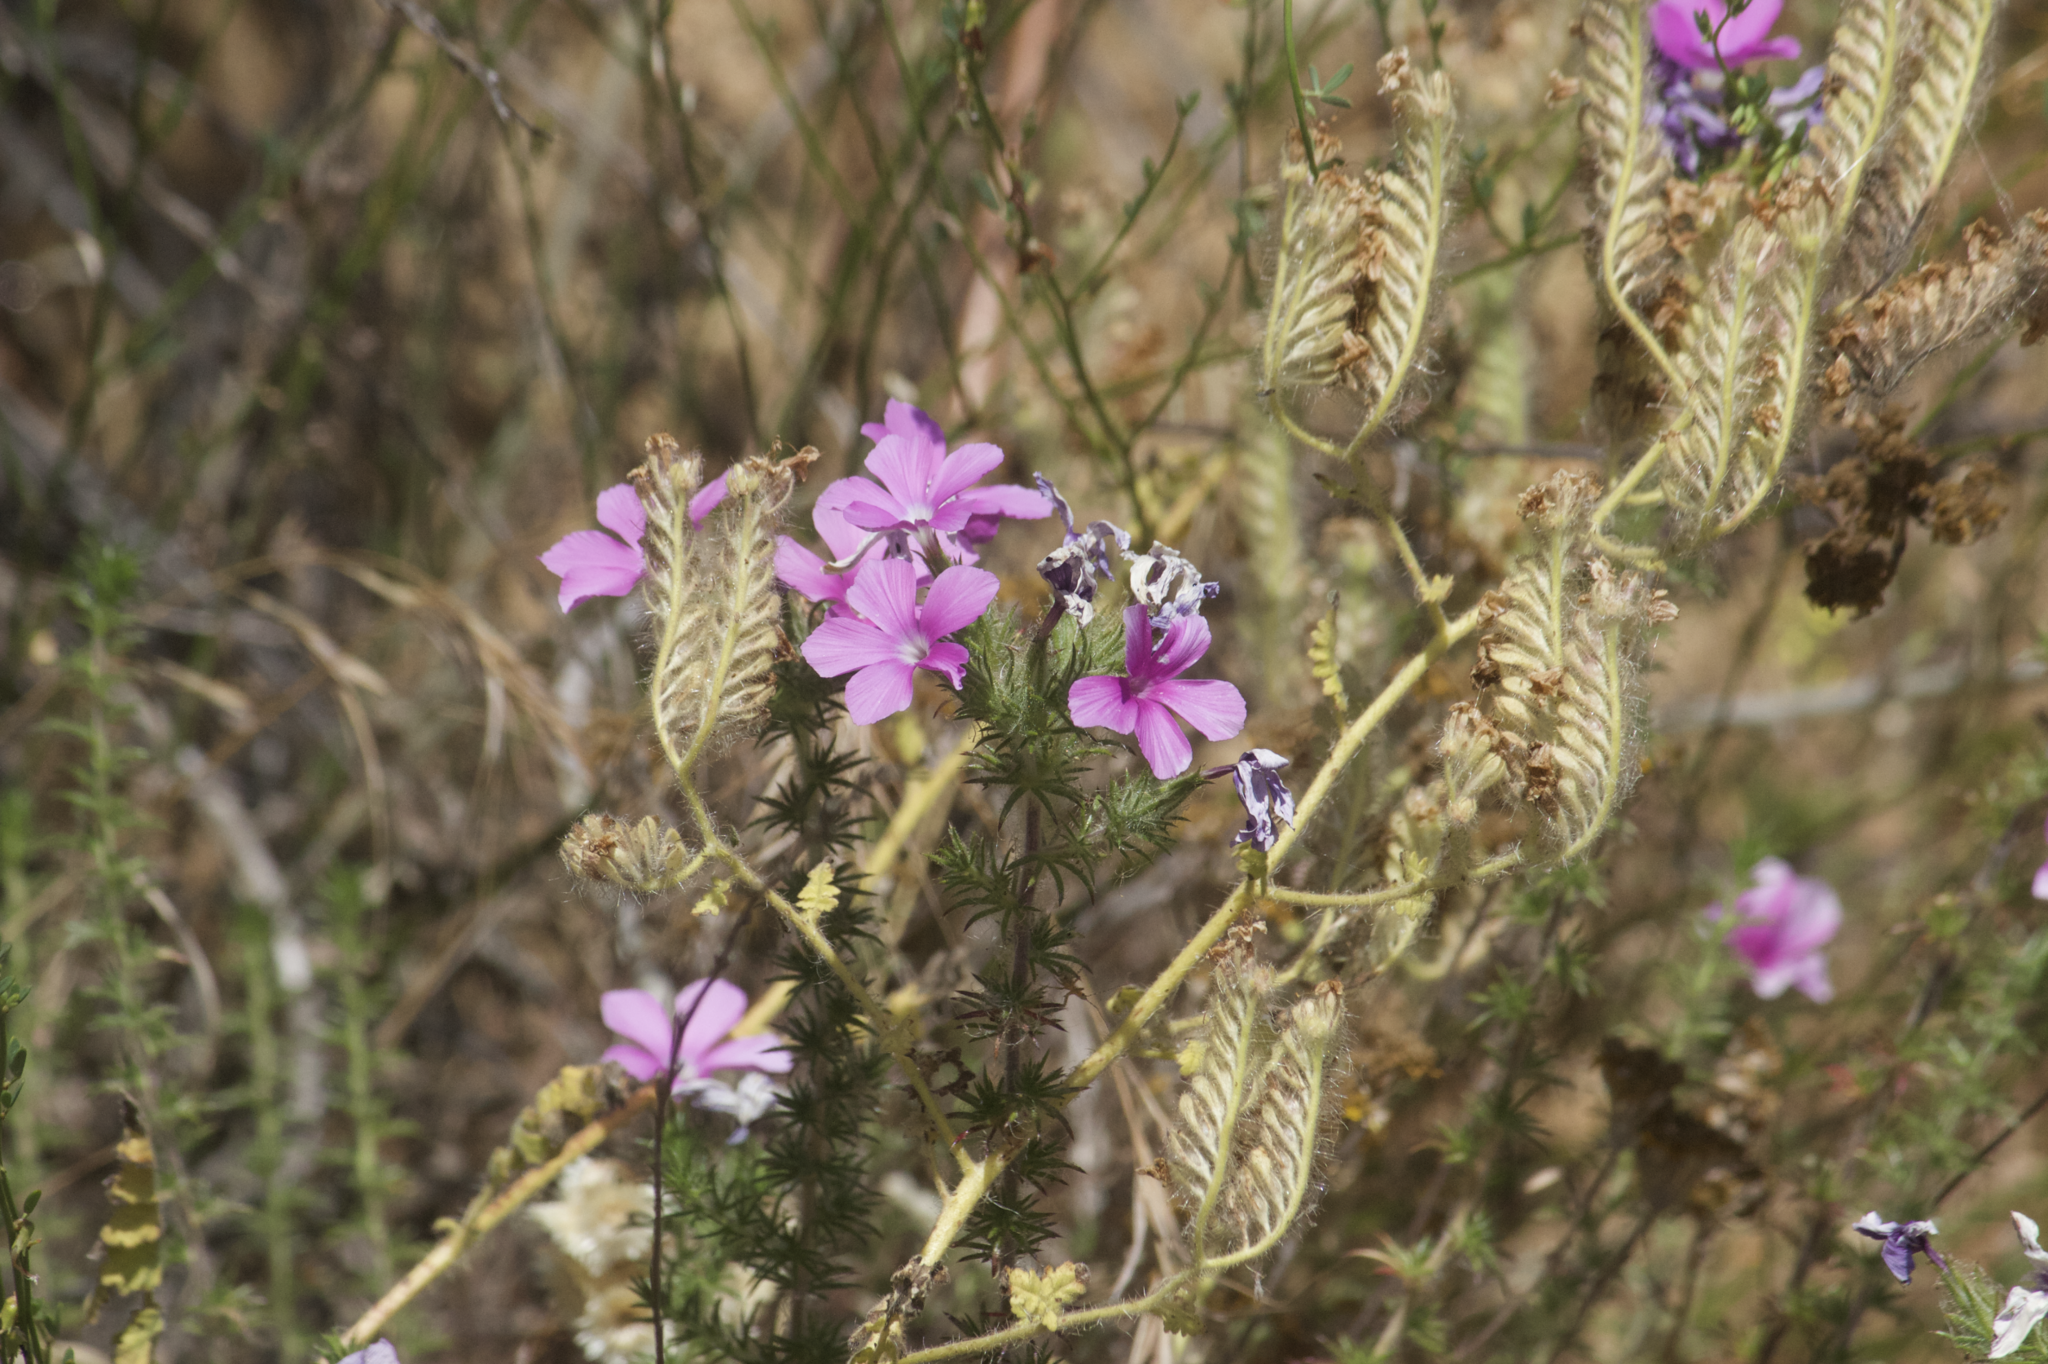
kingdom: Plantae
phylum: Tracheophyta
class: Magnoliopsida
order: Ericales
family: Polemoniaceae
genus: Linanthus
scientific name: Linanthus californicus
